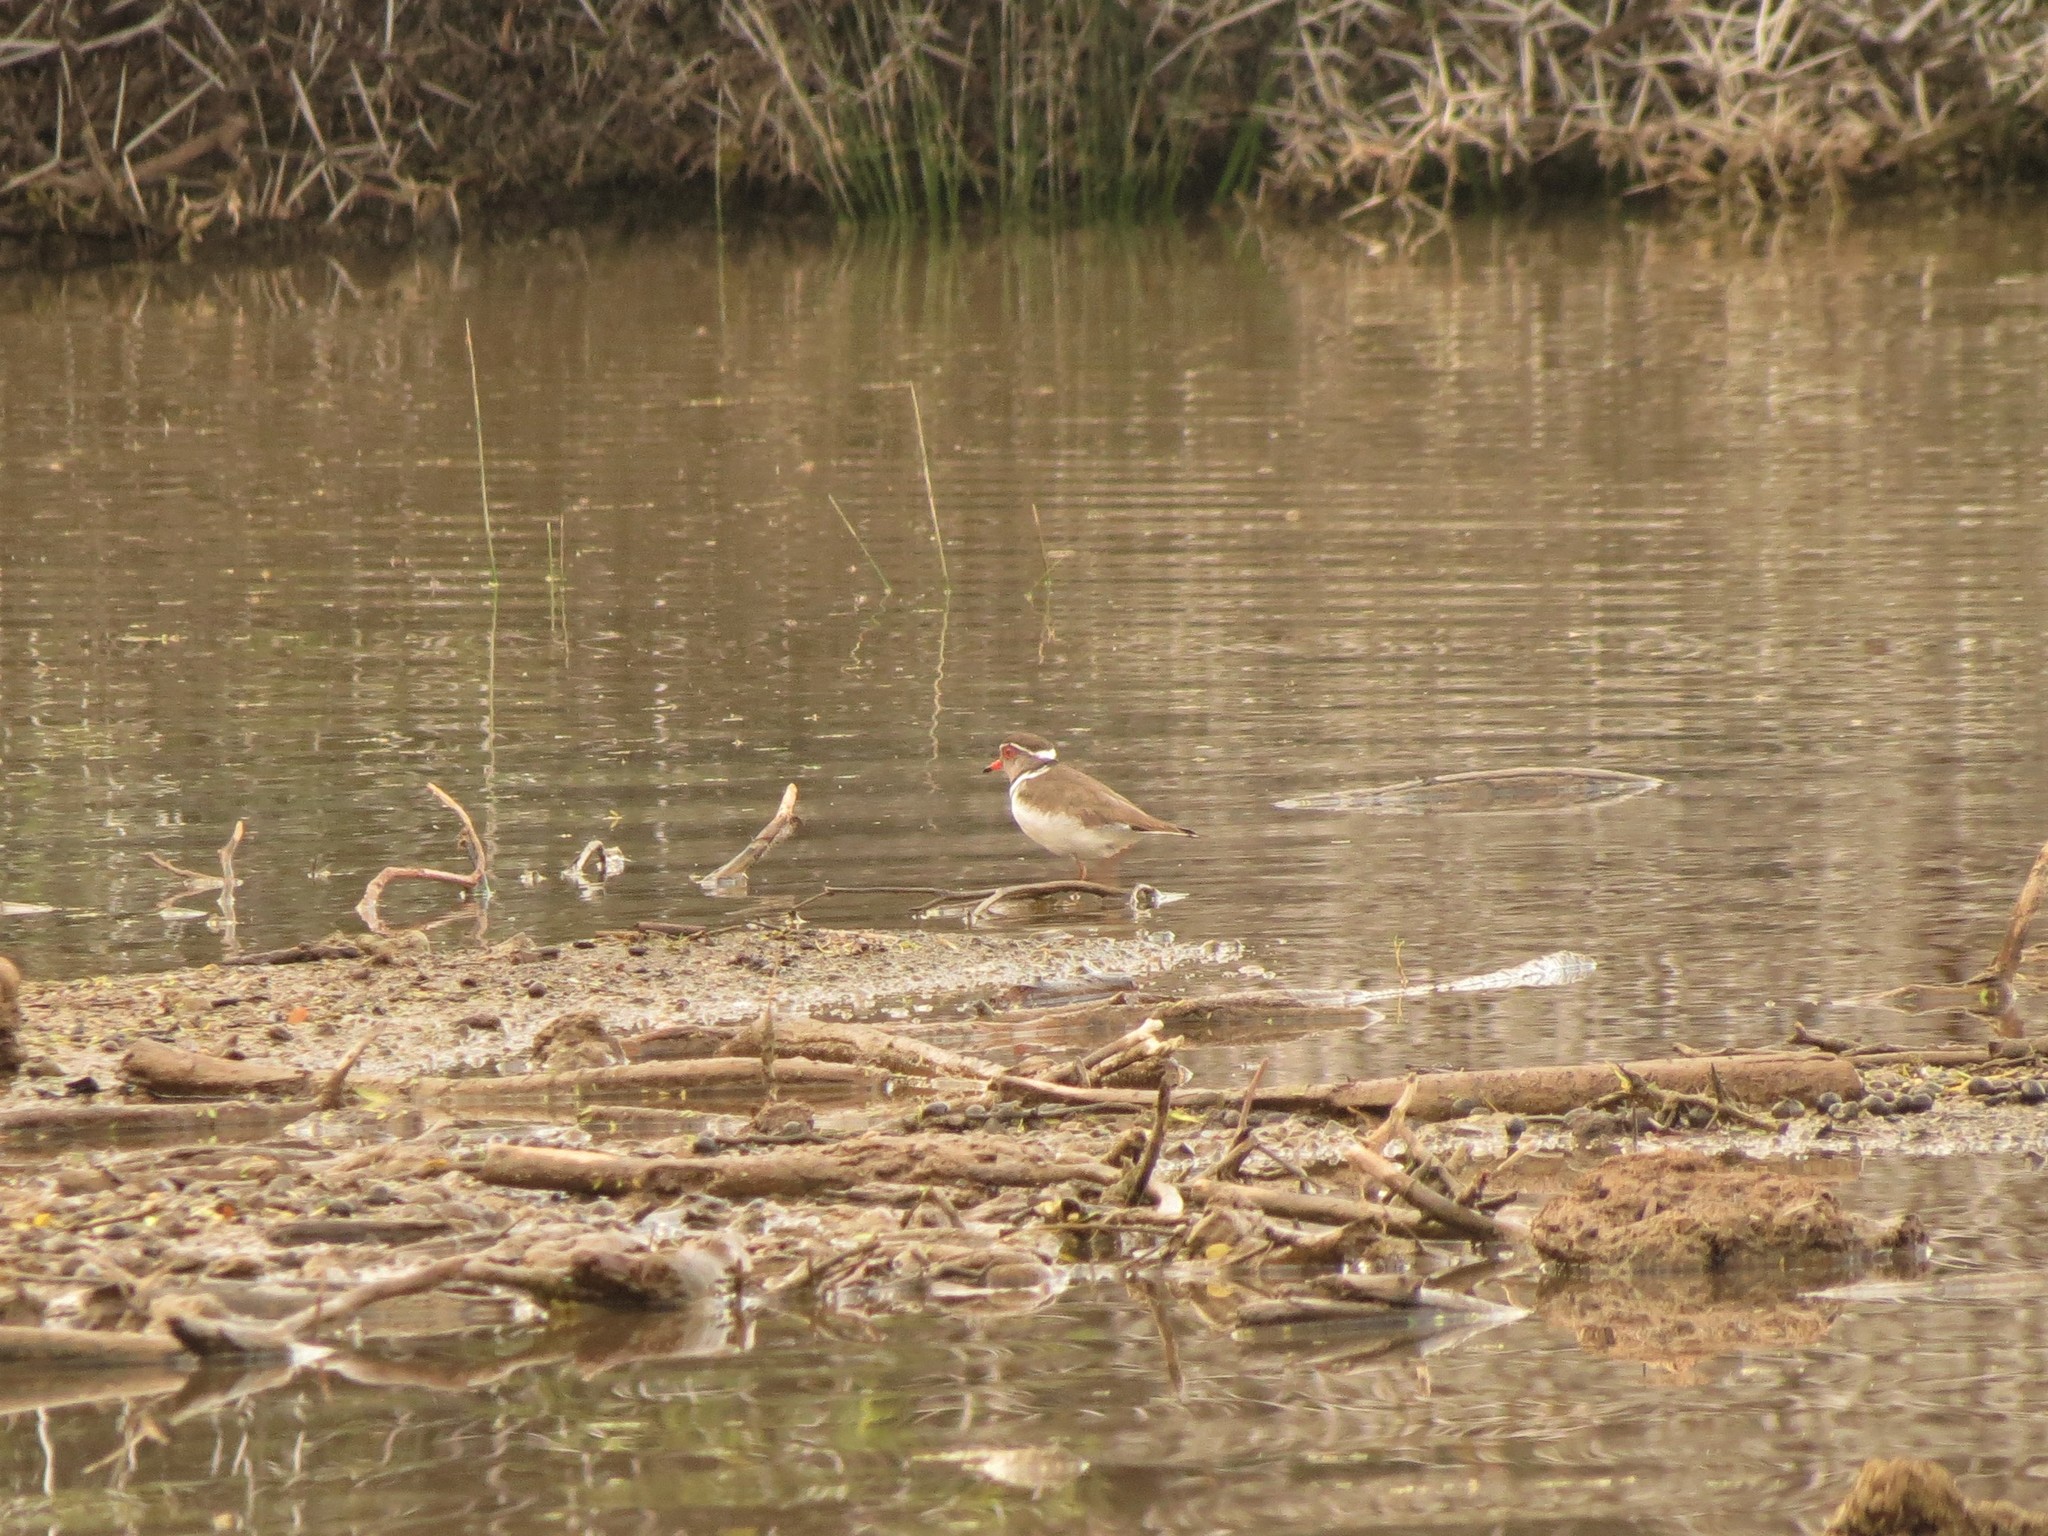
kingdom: Animalia
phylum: Chordata
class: Aves
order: Charadriiformes
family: Charadriidae
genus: Charadrius
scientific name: Charadrius tricollaris
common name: Three-banded plover
